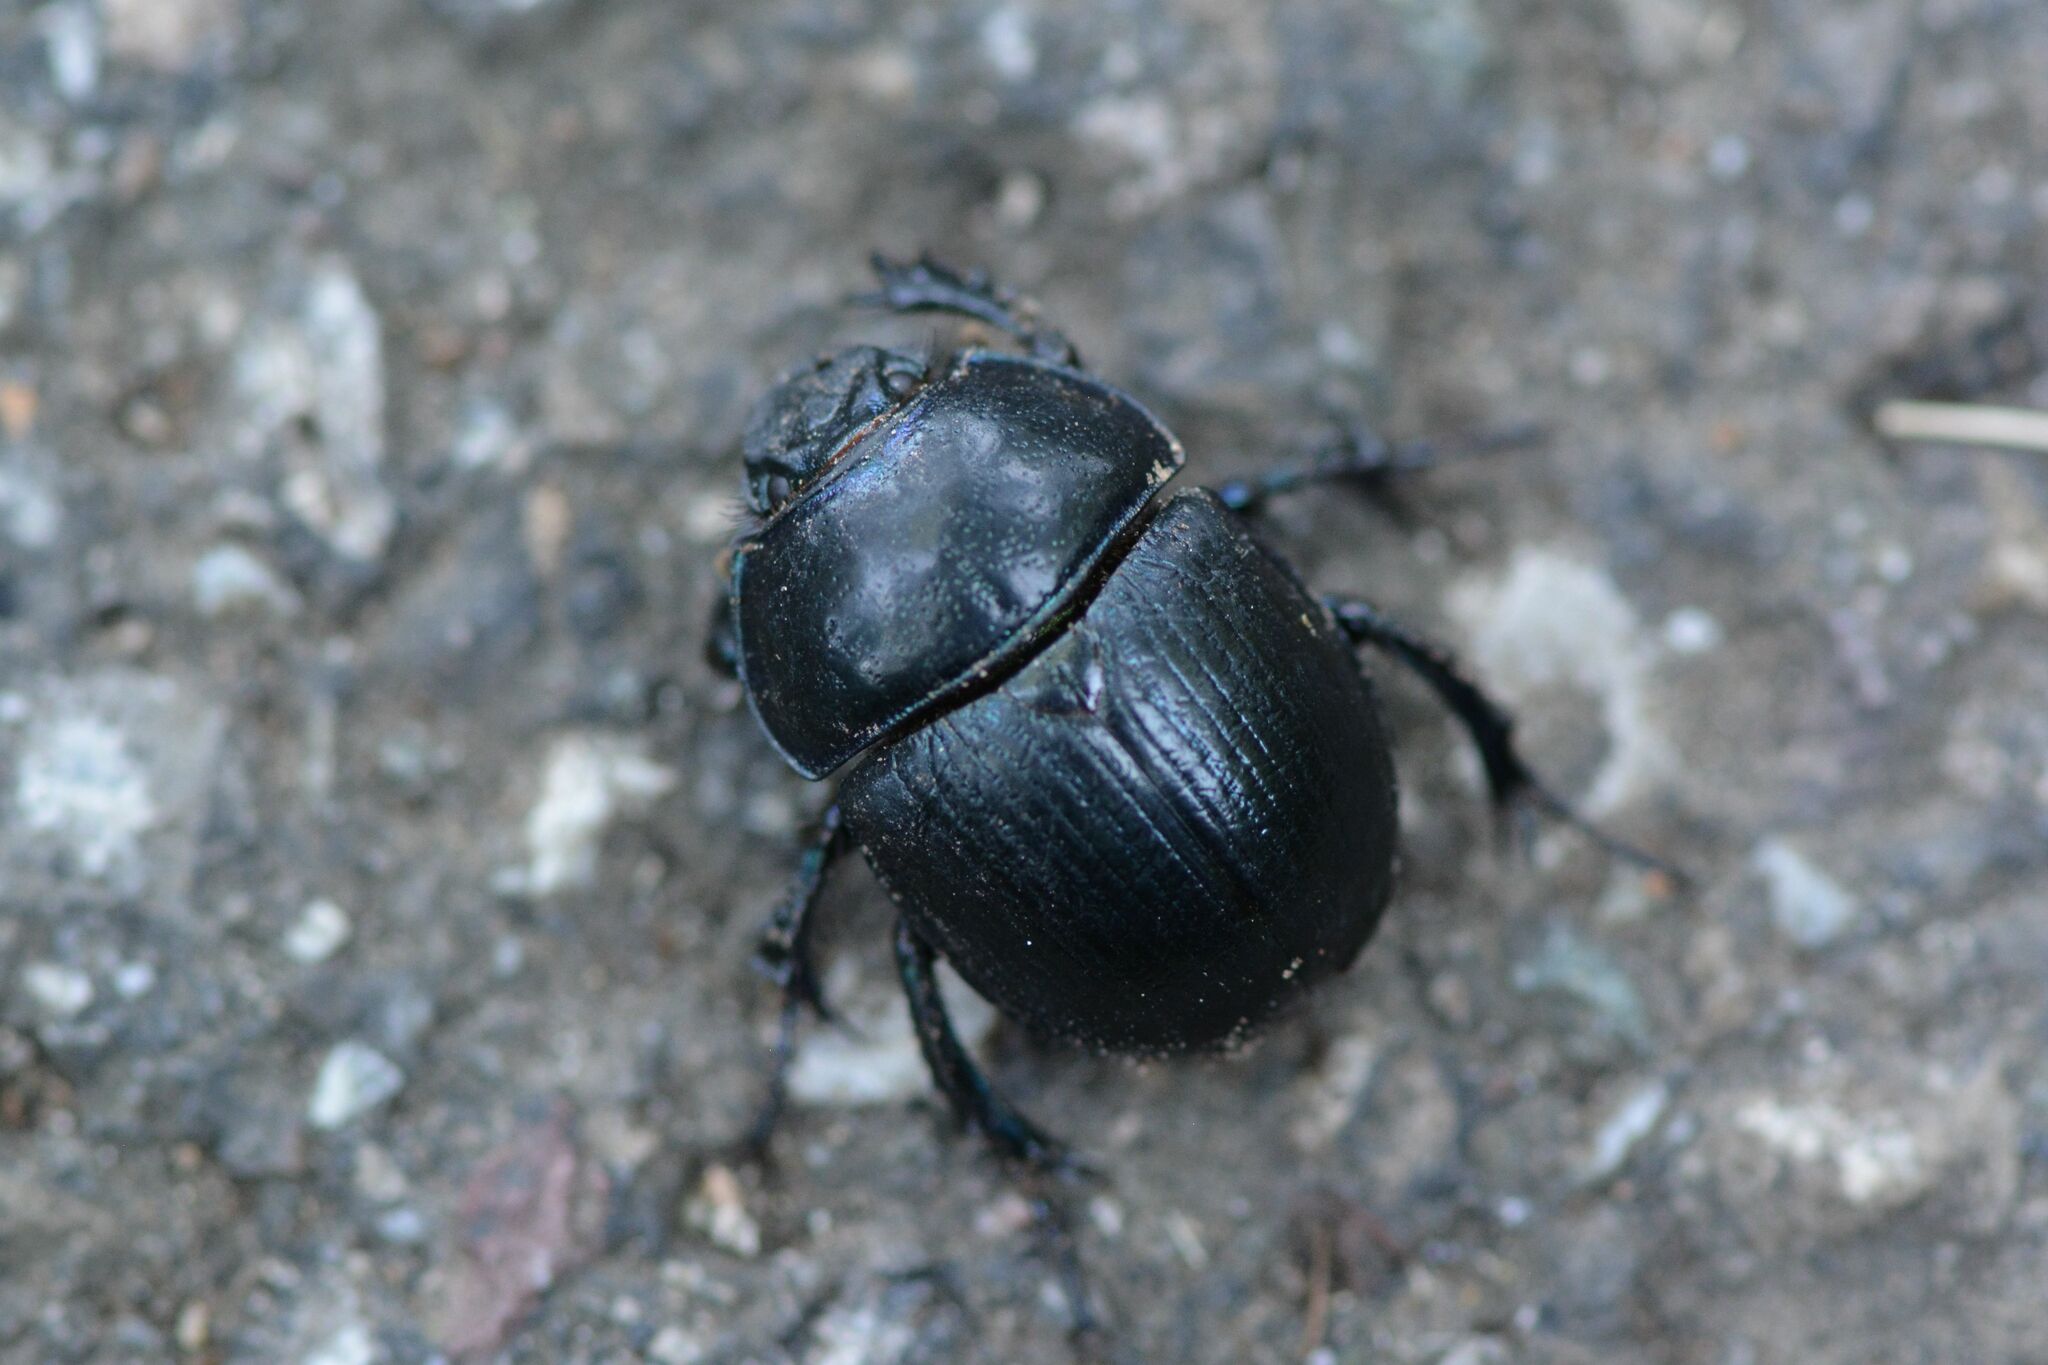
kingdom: Animalia
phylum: Arthropoda
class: Insecta
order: Coleoptera
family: Geotrupidae
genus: Anoplotrupes
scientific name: Anoplotrupes stercorosus
